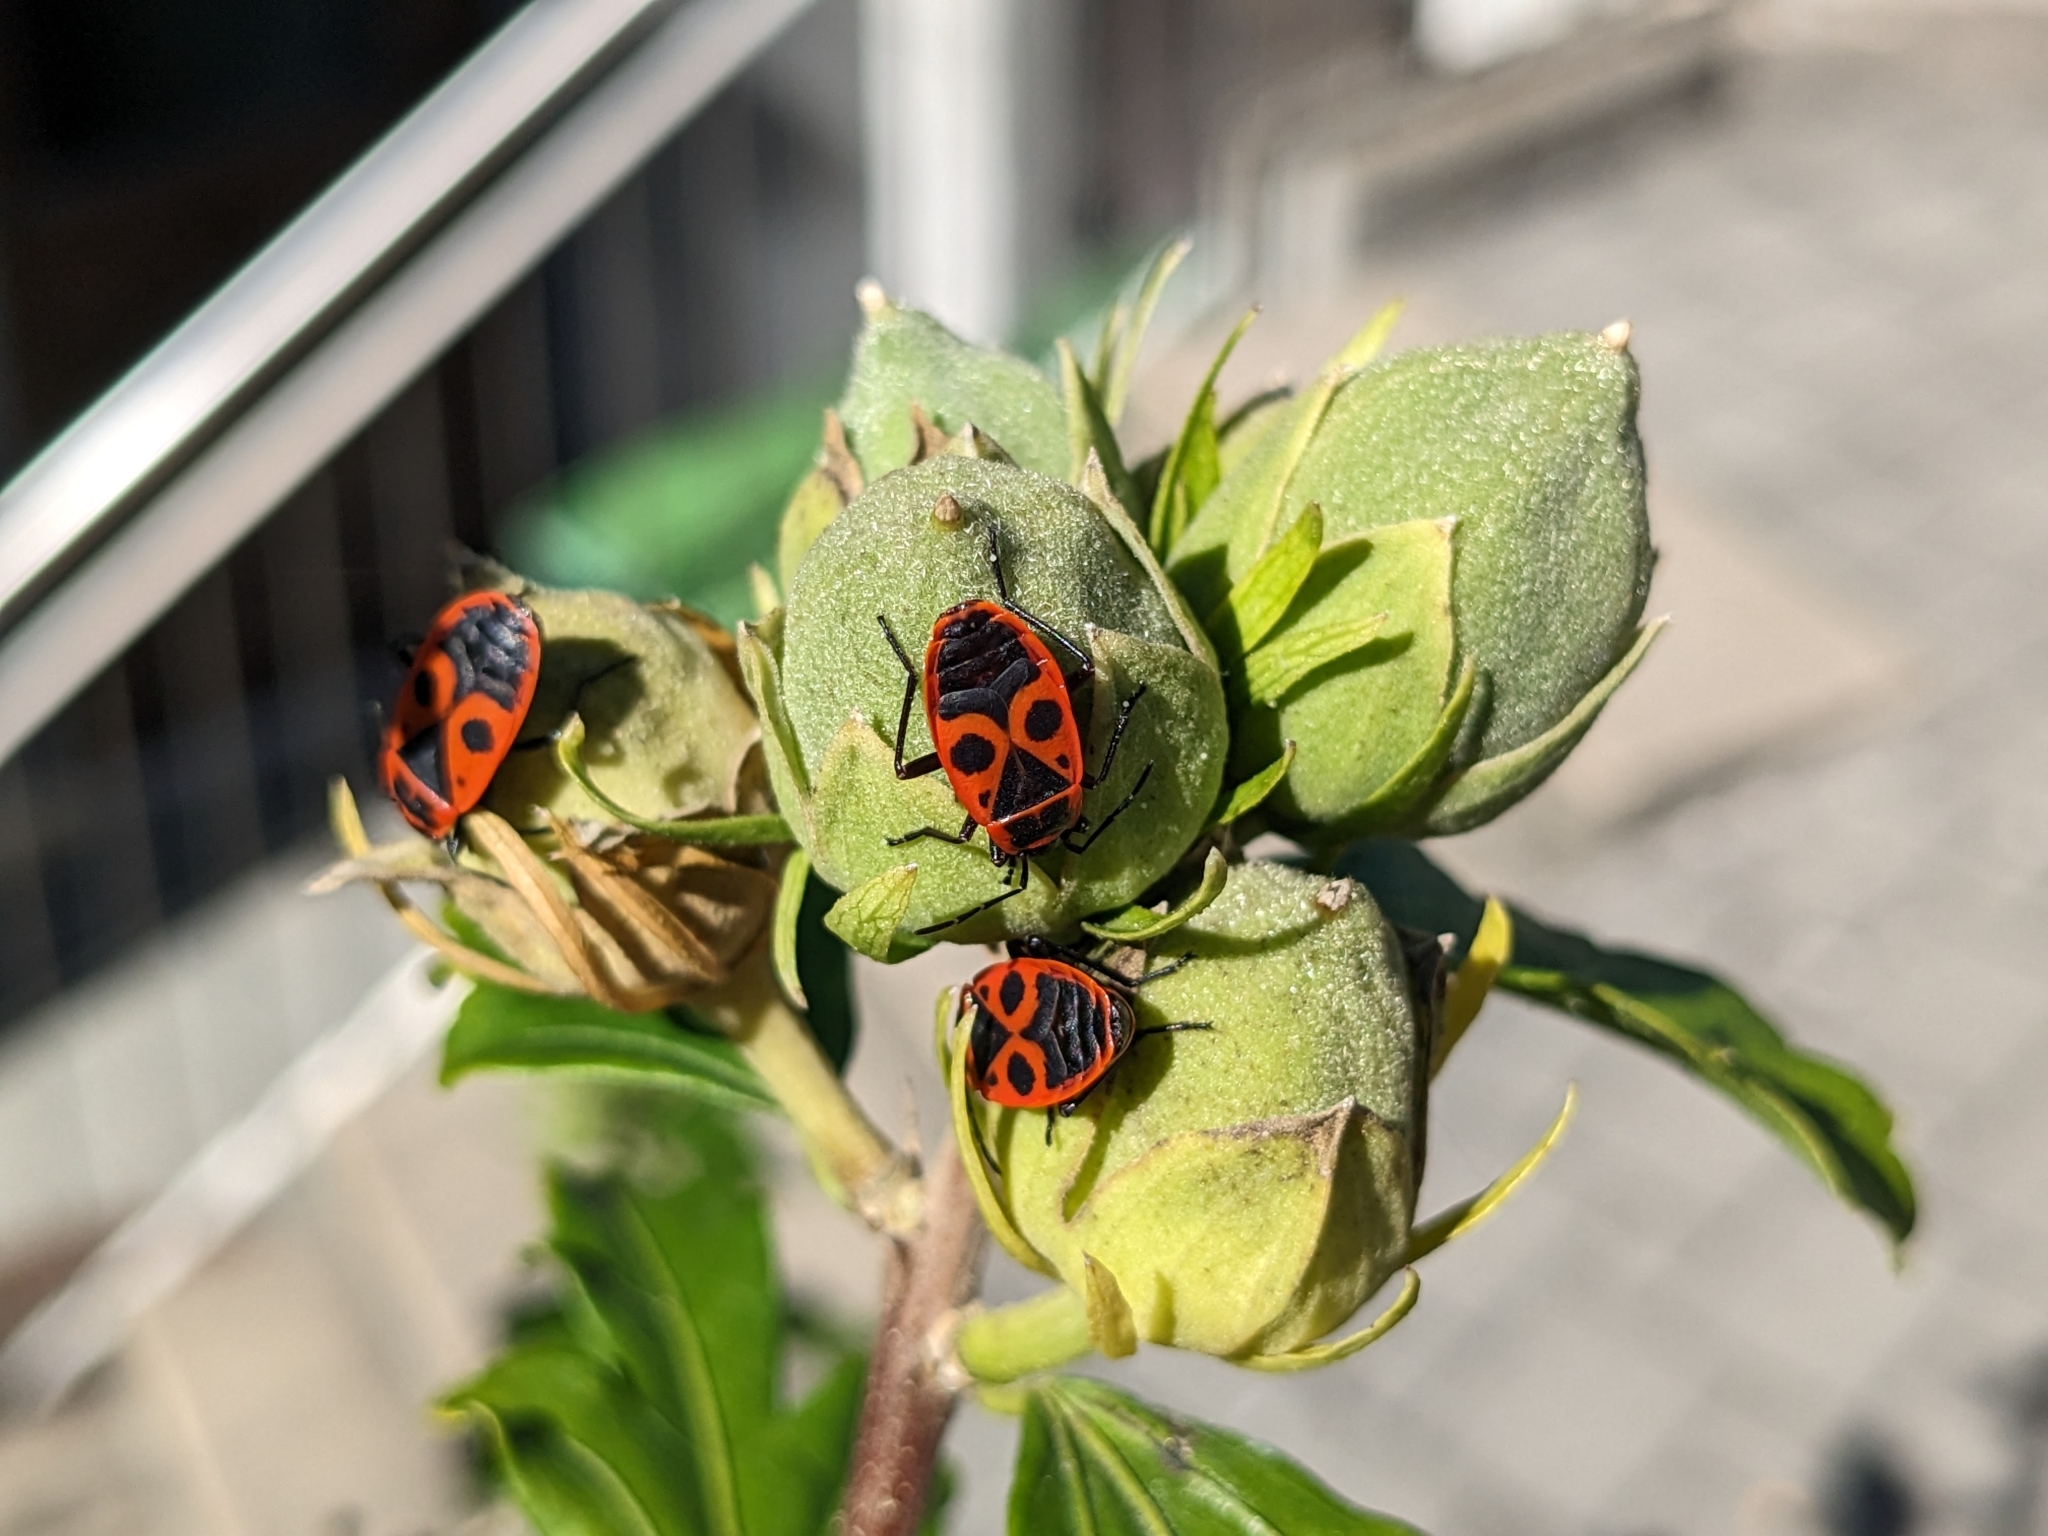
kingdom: Animalia
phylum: Arthropoda
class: Insecta
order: Hemiptera
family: Pyrrhocoridae
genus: Pyrrhocoris
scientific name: Pyrrhocoris apterus
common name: Firebug
